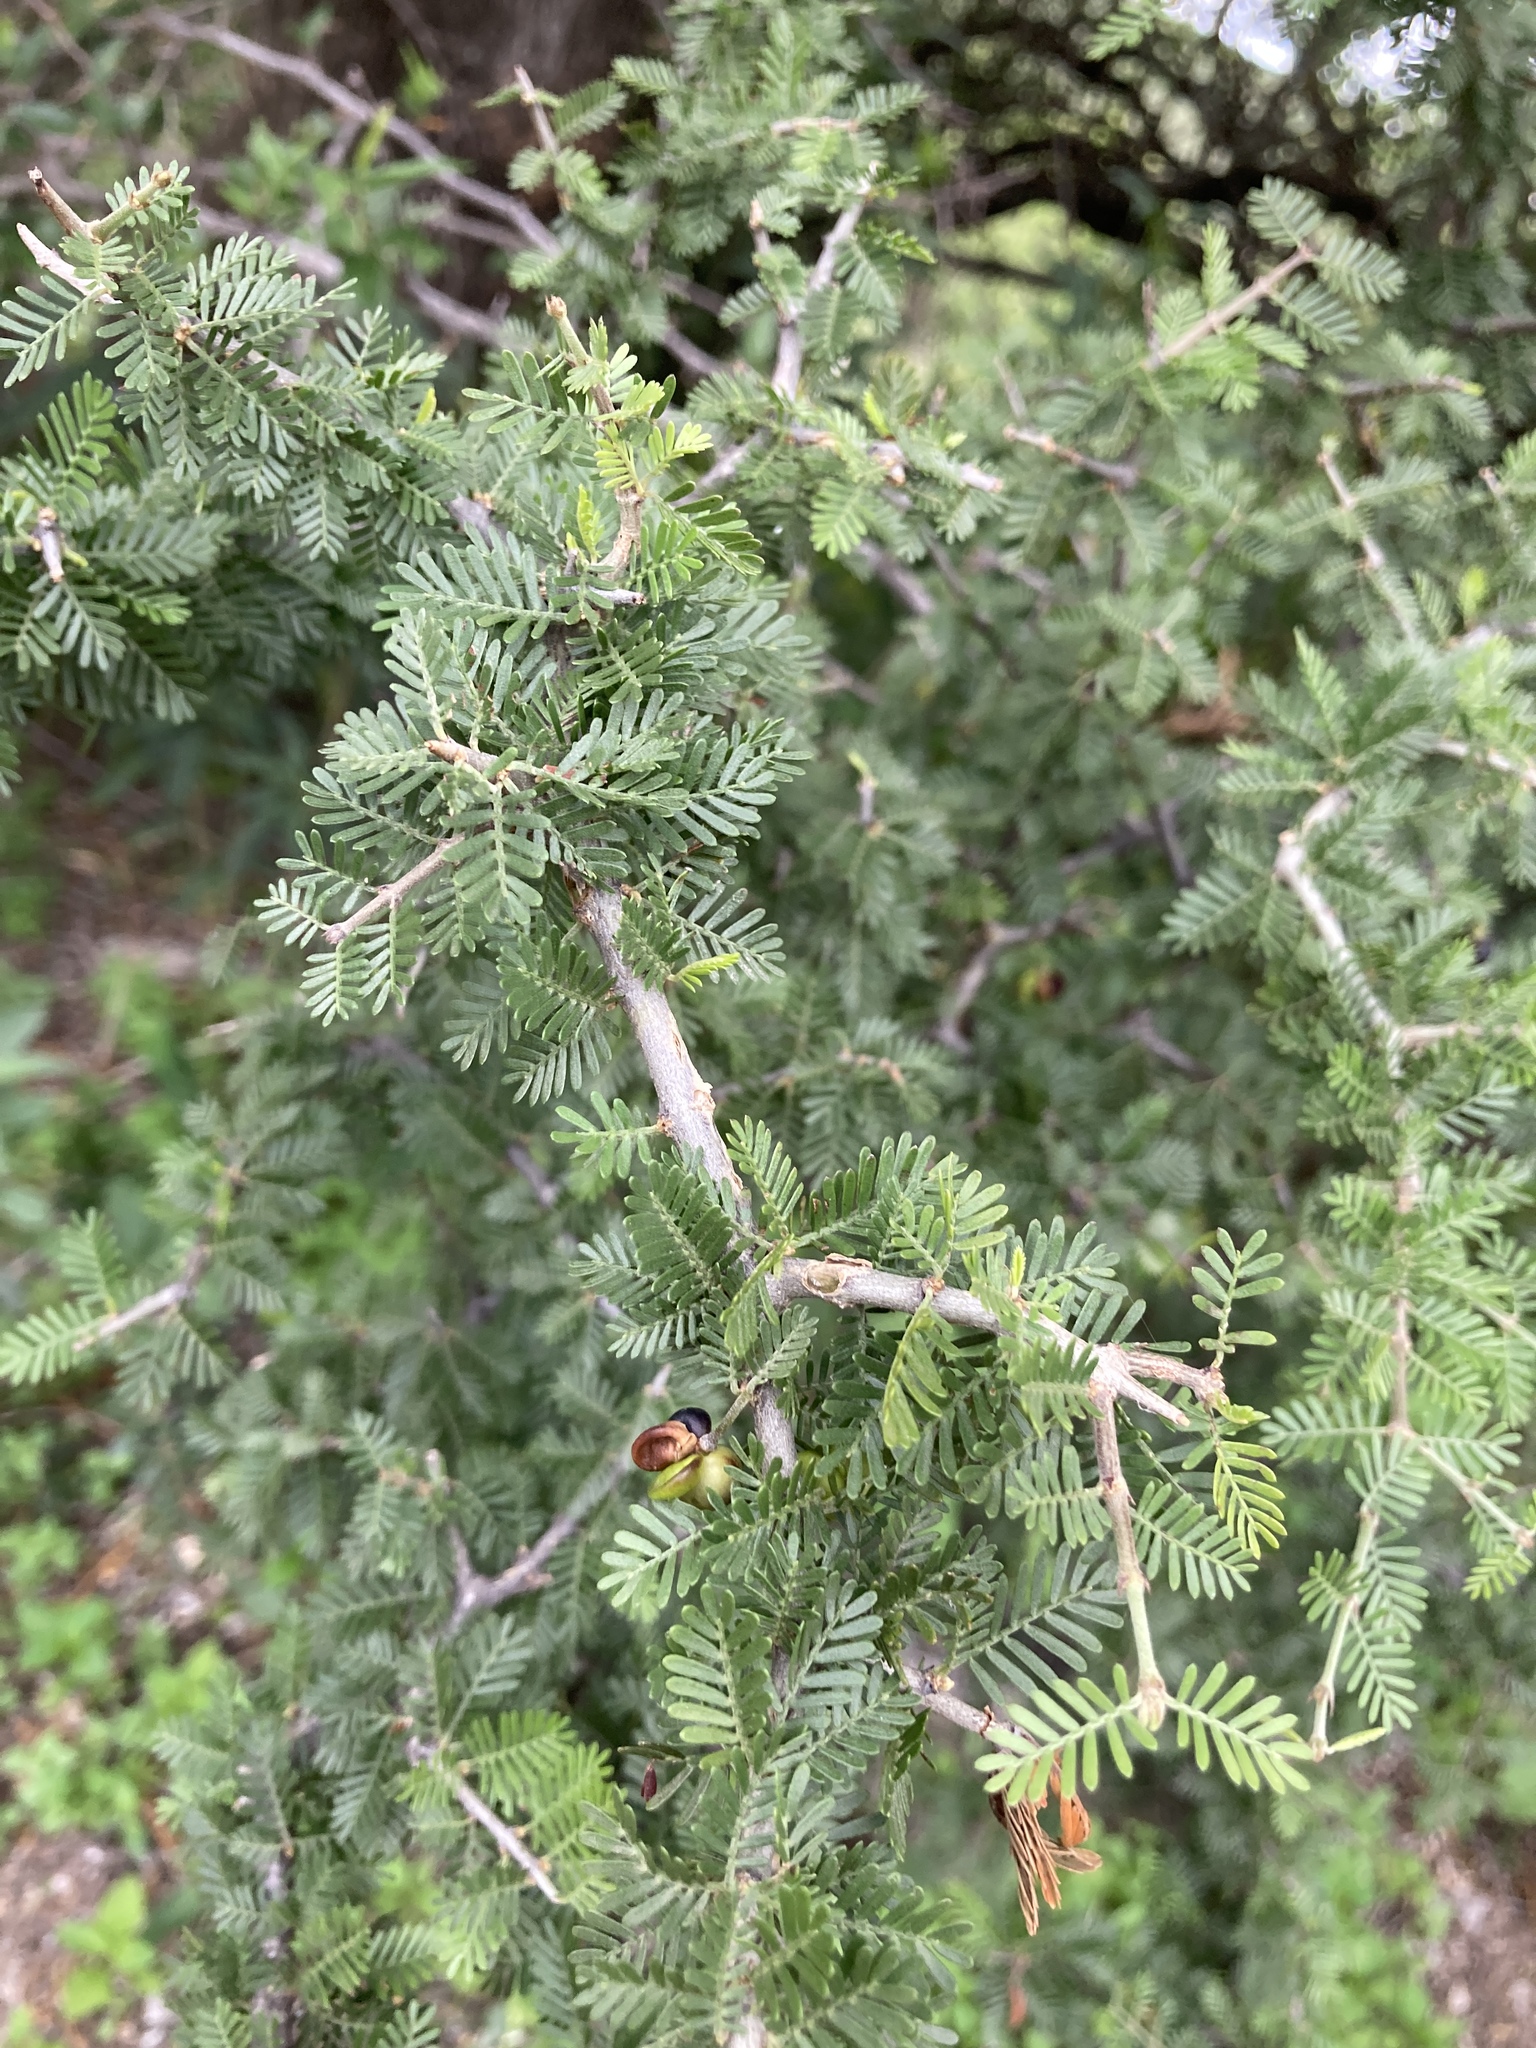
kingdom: Plantae
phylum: Tracheophyta
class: Magnoliopsida
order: Zygophyllales
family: Zygophyllaceae
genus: Porlieria
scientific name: Porlieria microphylla
